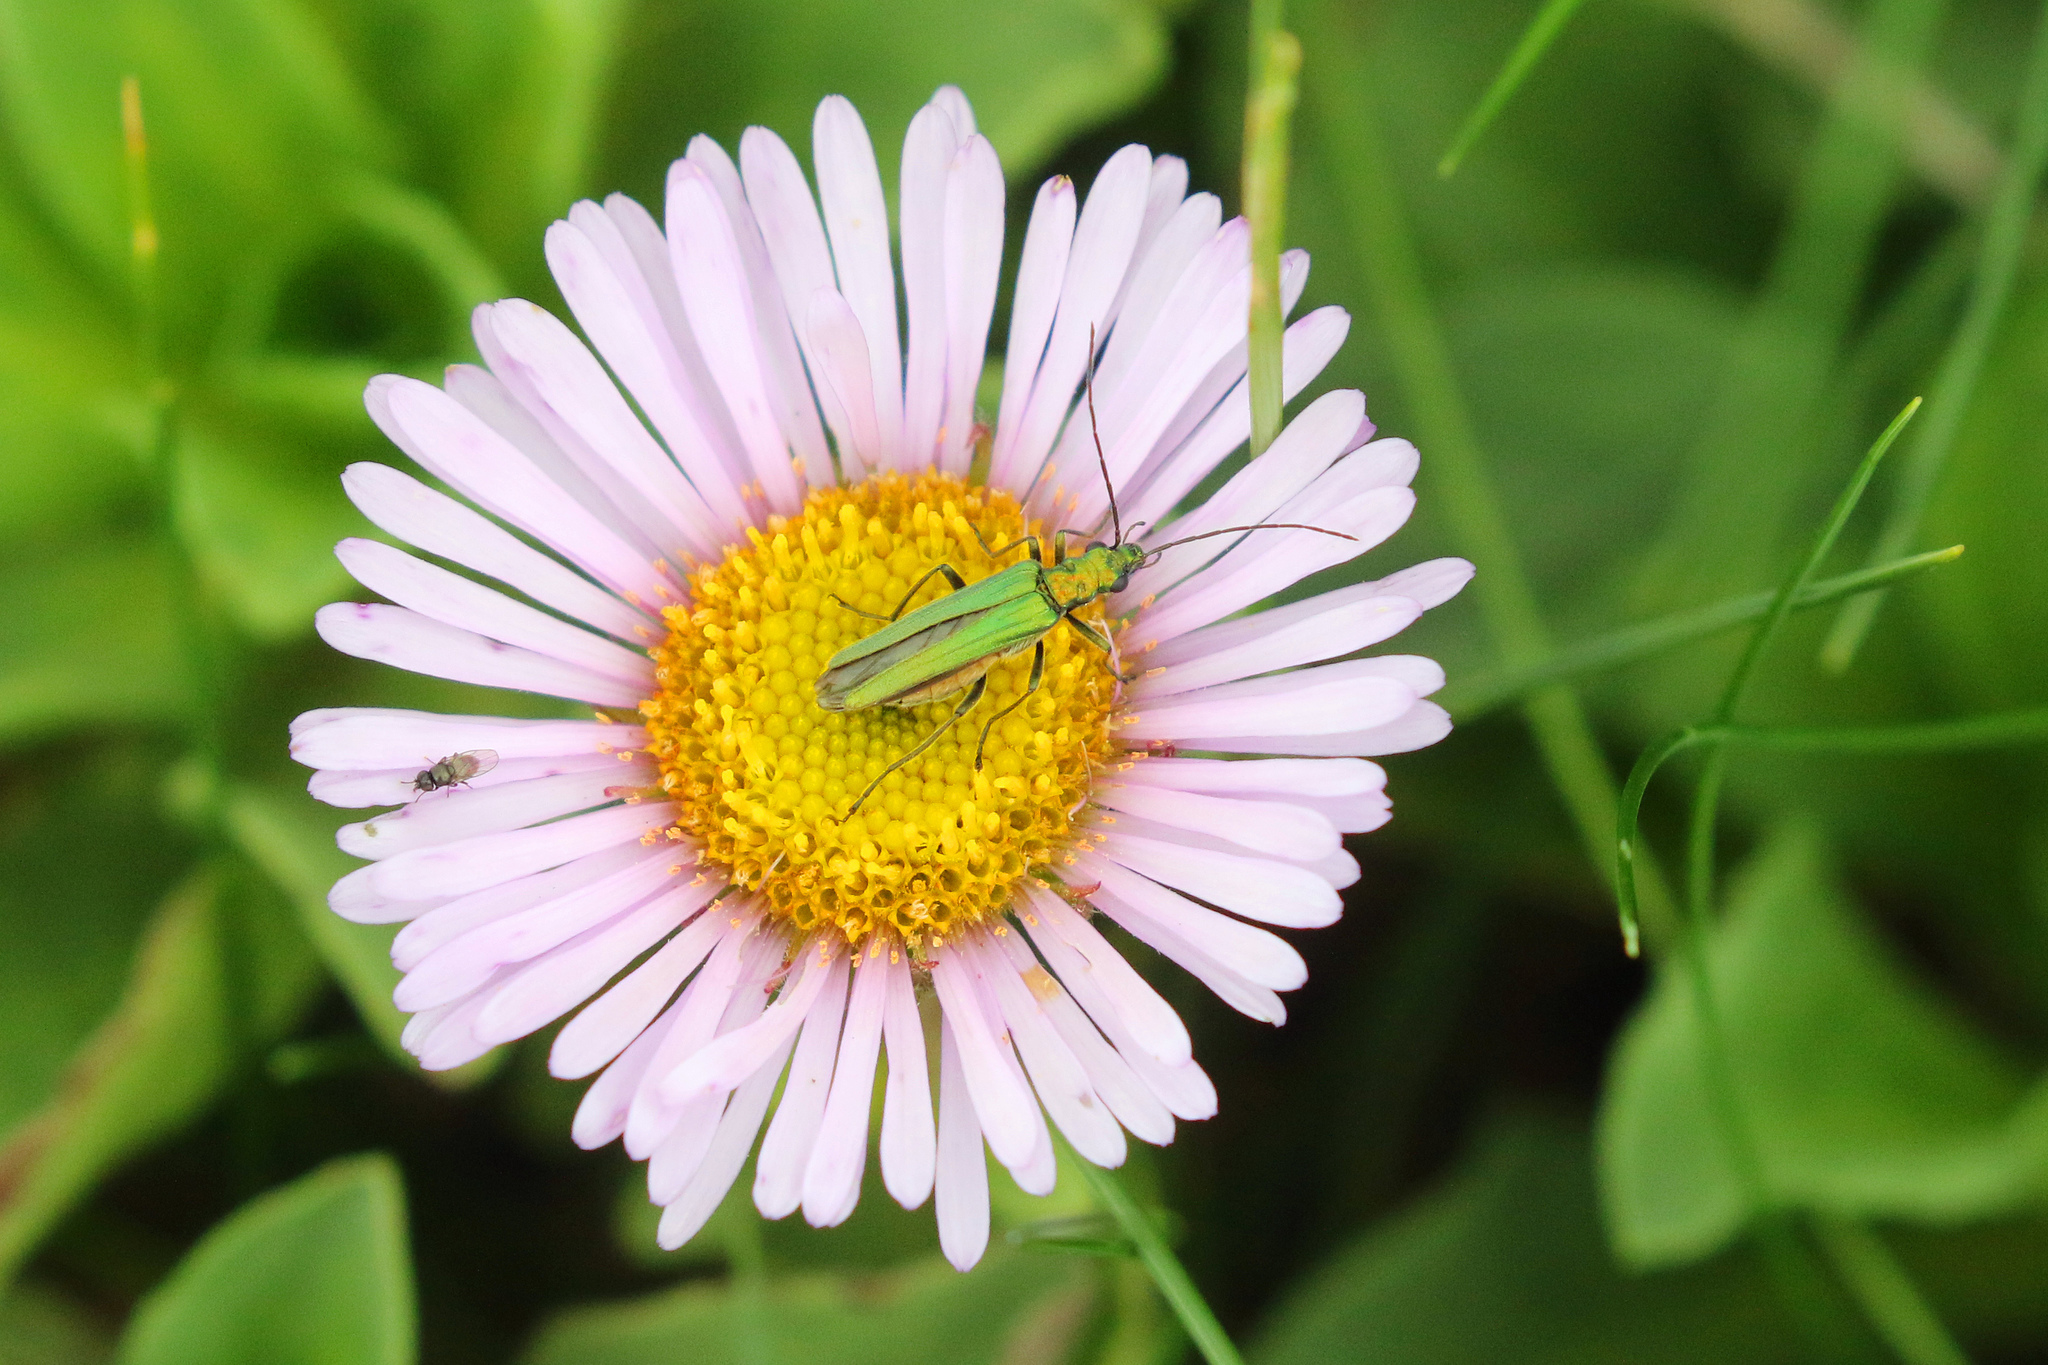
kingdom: Animalia
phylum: Arthropoda
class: Insecta
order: Coleoptera
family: Oedemeridae
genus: Oedemera
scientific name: Oedemera nobilis
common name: Swollen-thighed beetle
